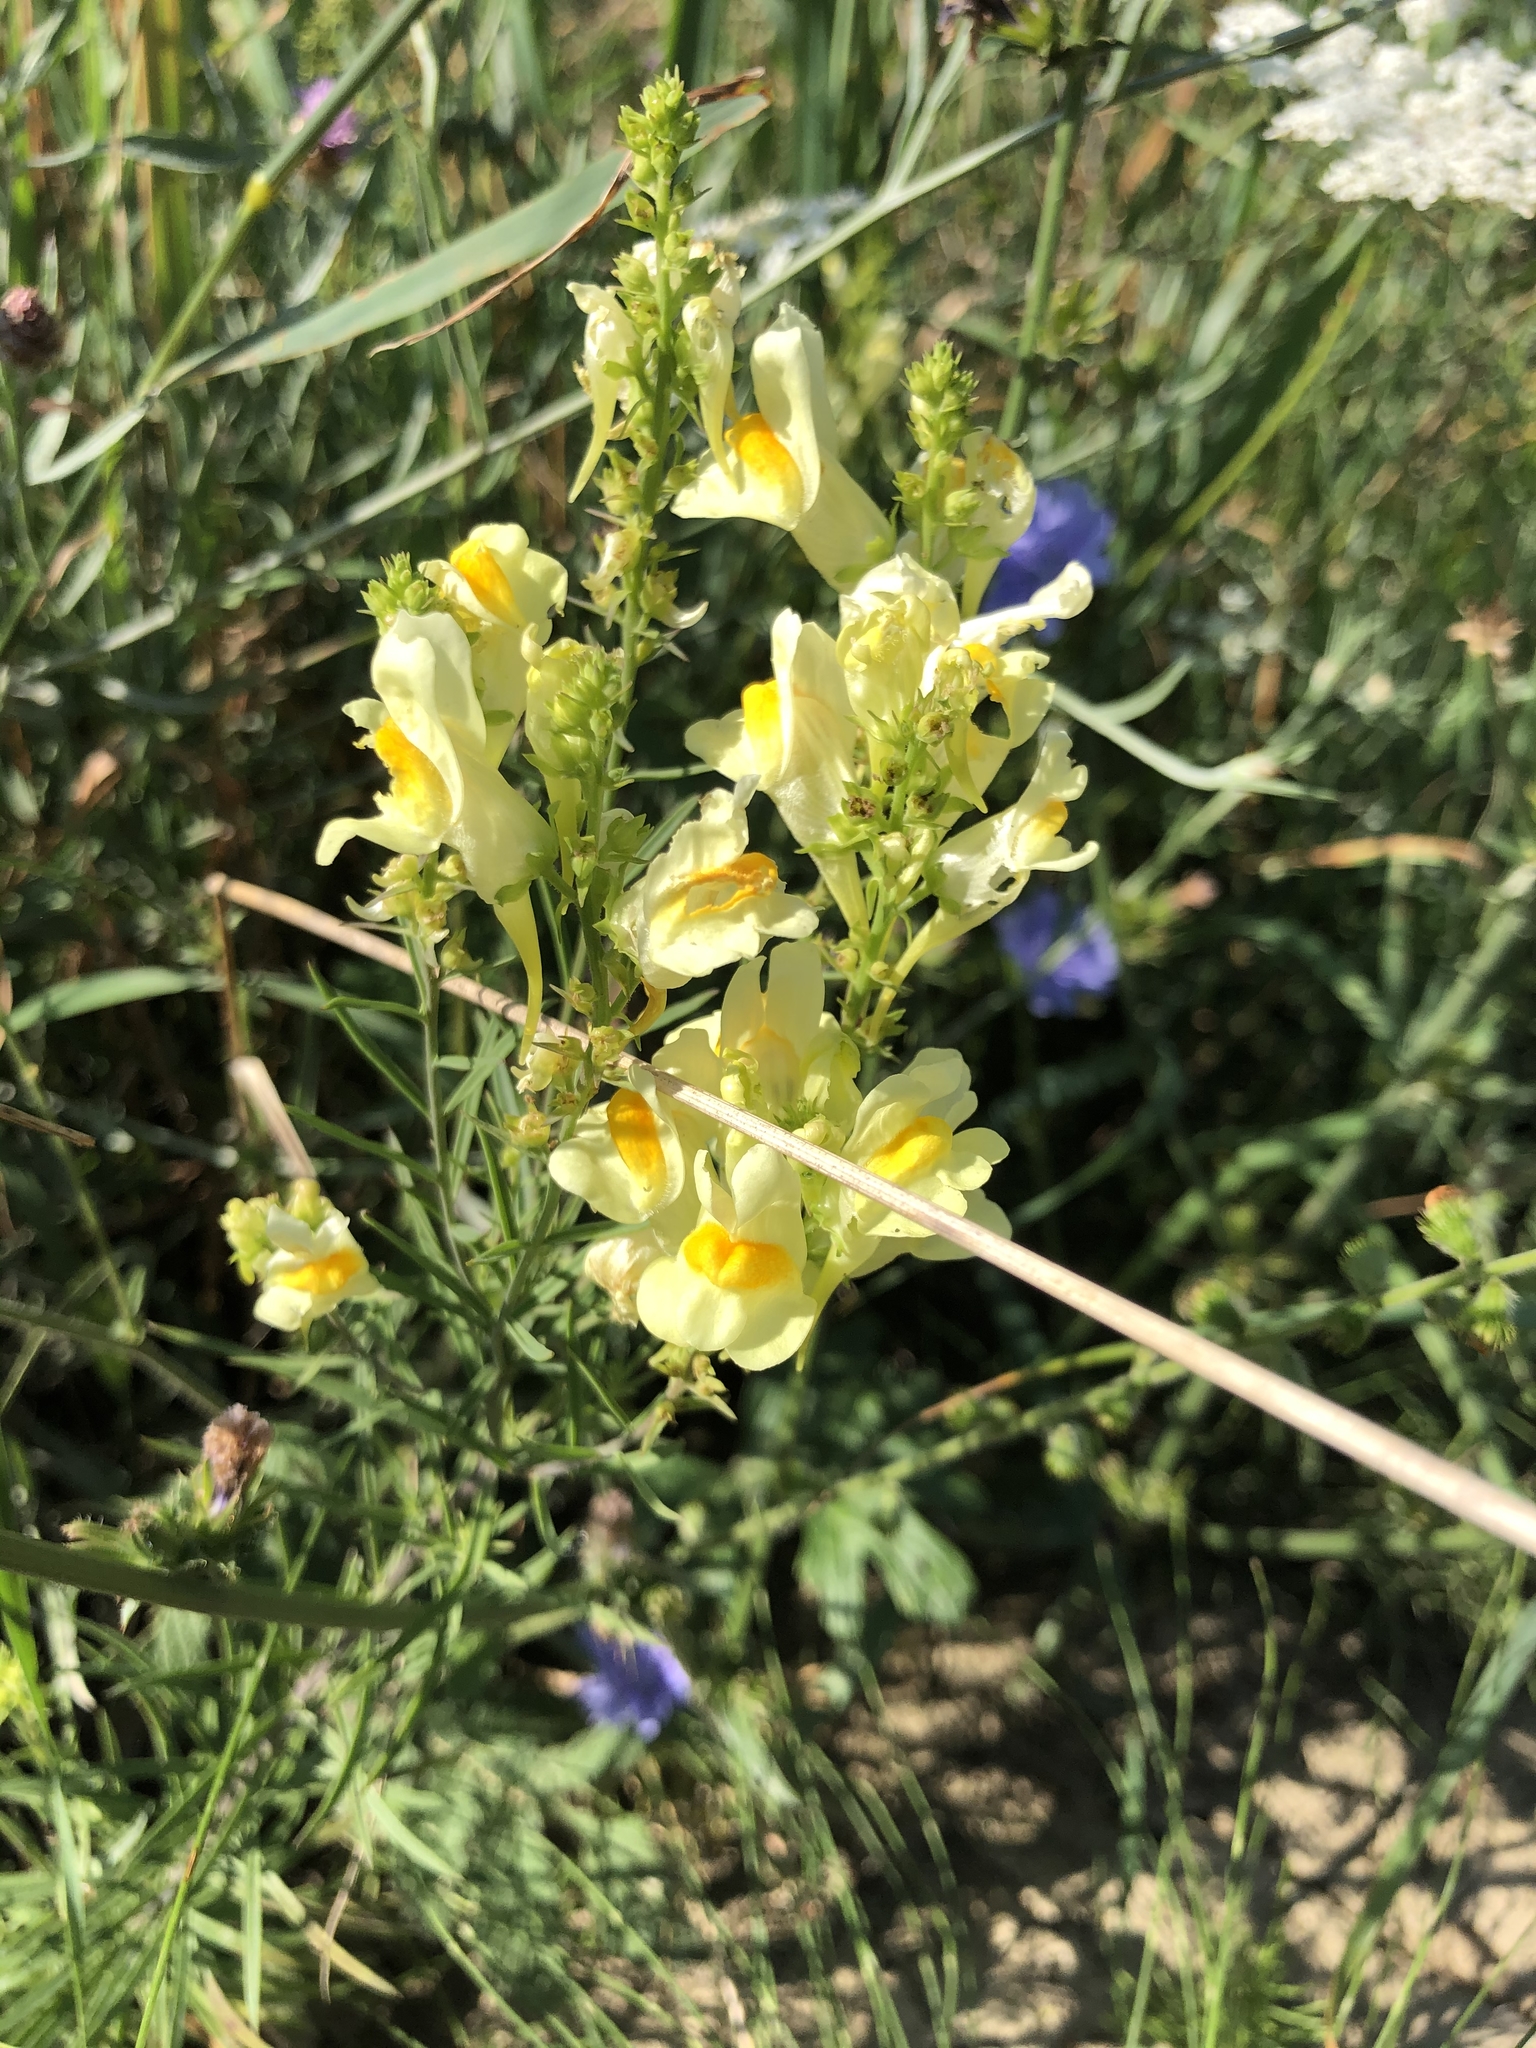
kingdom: Plantae
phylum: Tracheophyta
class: Magnoliopsida
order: Lamiales
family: Plantaginaceae
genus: Linaria
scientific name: Linaria vulgaris
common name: Butter and eggs
